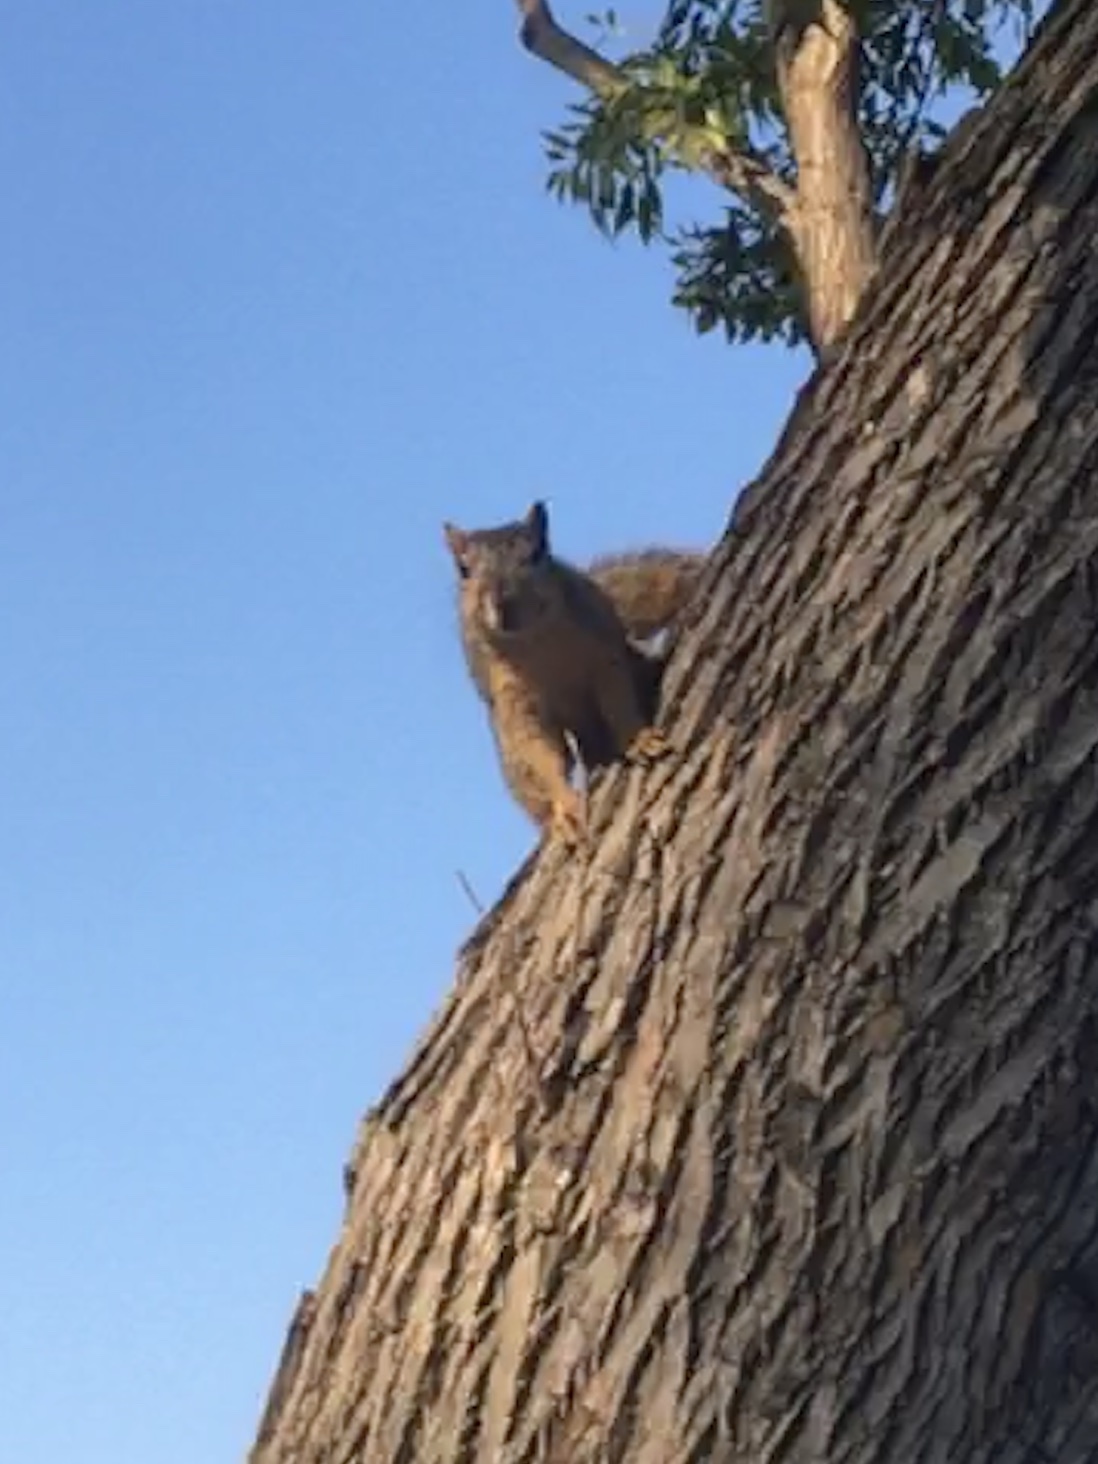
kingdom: Animalia
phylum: Chordata
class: Mammalia
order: Rodentia
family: Sciuridae
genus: Sciurus
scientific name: Sciurus niger
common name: Fox squirrel
